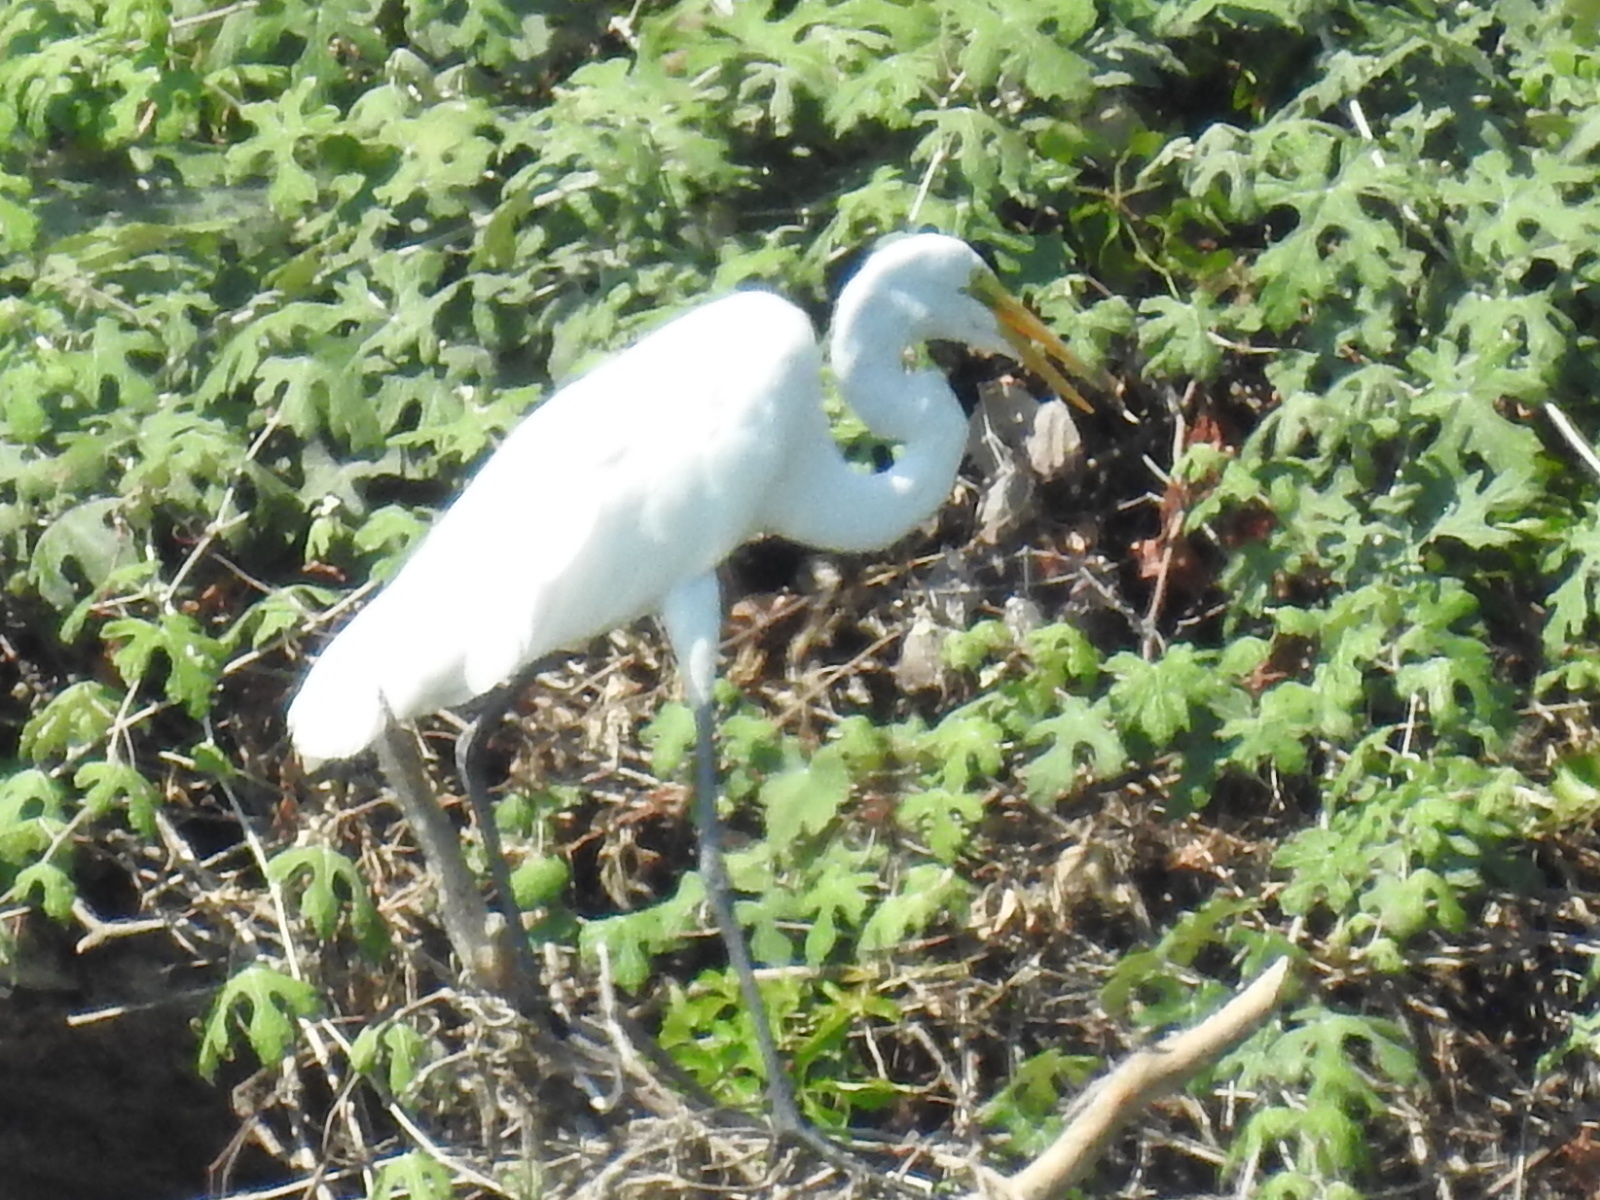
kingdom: Animalia
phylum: Chordata
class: Aves
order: Pelecaniformes
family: Ardeidae
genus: Ardea
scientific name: Ardea alba
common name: Great egret
